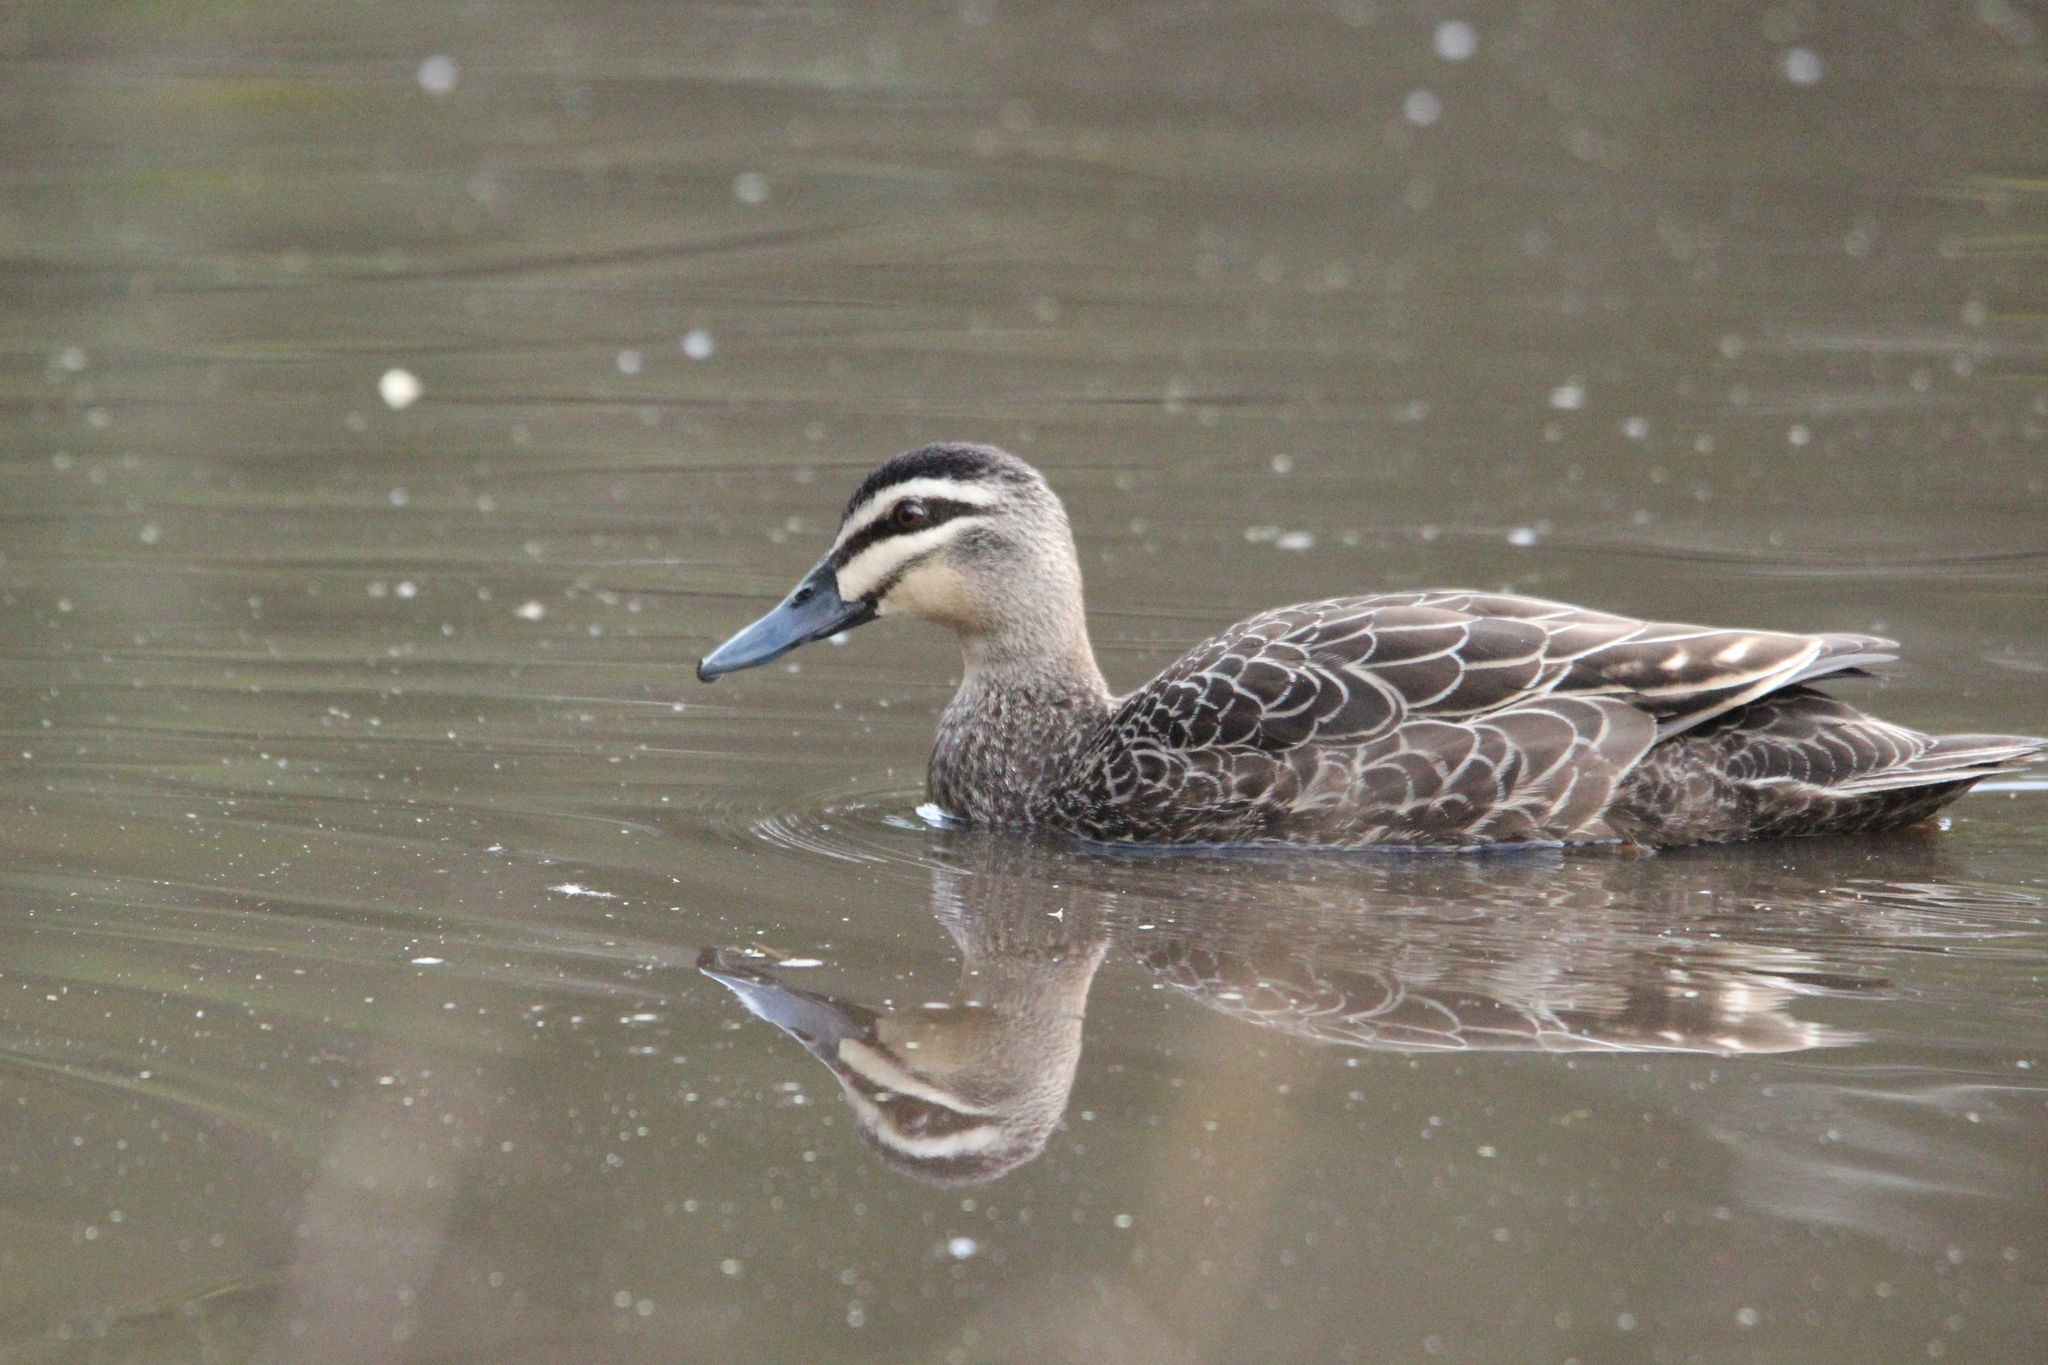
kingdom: Animalia
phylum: Chordata
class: Aves
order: Anseriformes
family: Anatidae
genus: Anas
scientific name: Anas superciliosa
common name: Pacific black duck
